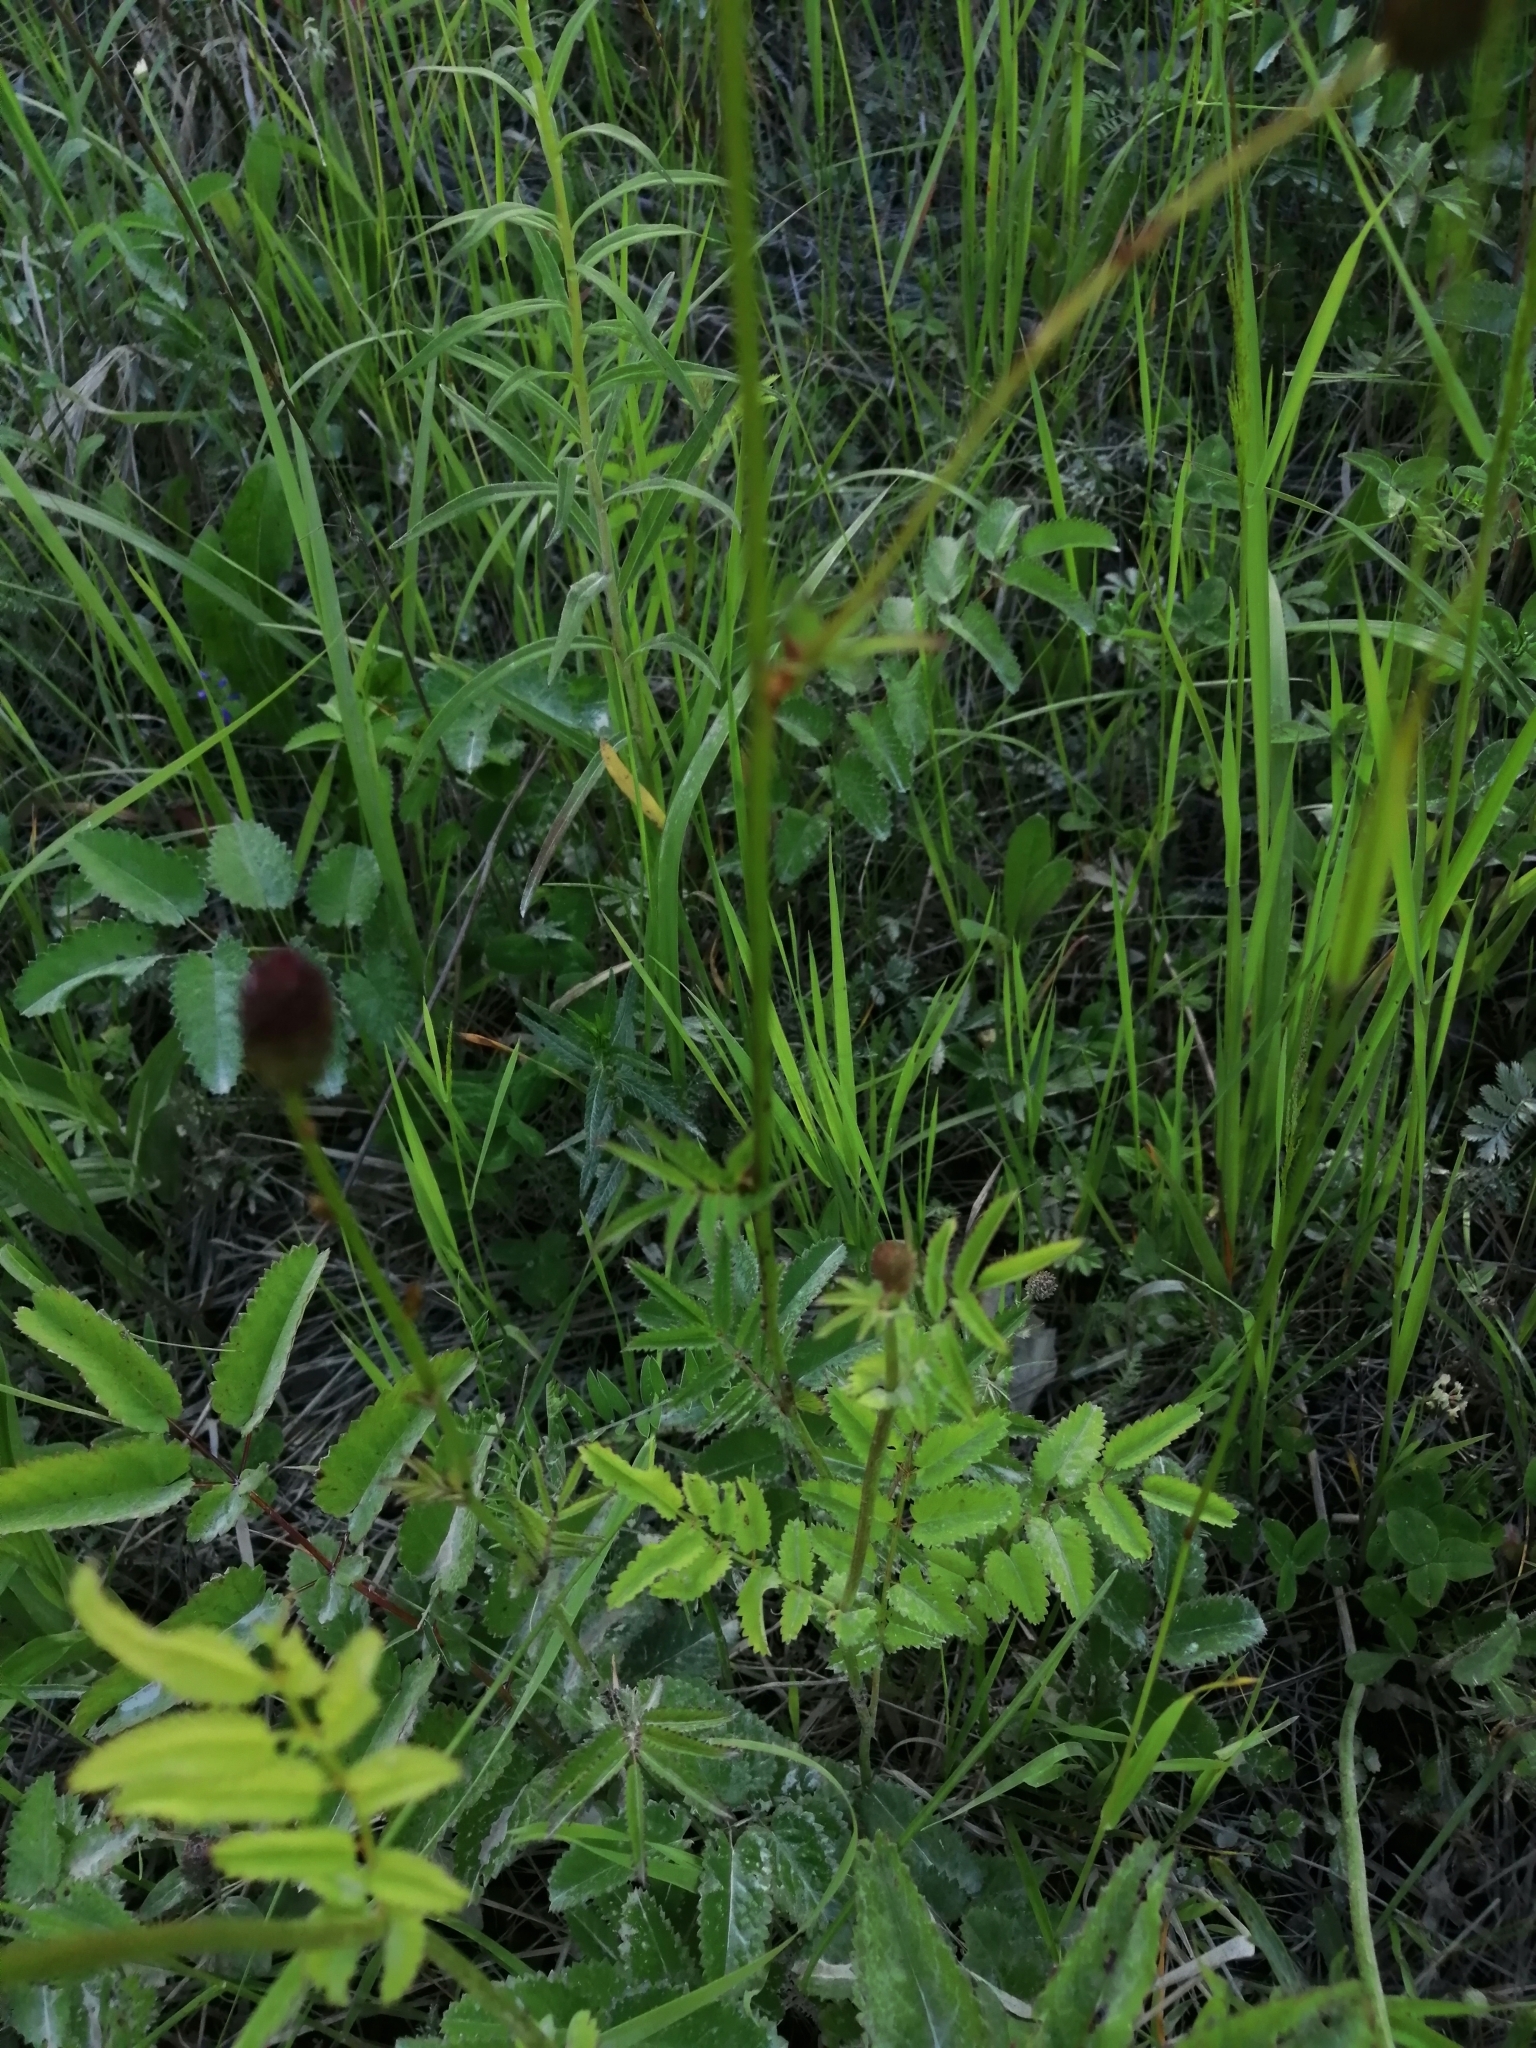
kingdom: Plantae
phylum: Tracheophyta
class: Magnoliopsida
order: Rosales
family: Rosaceae
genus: Sanguisorba
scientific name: Sanguisorba officinalis
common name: Great burnet
